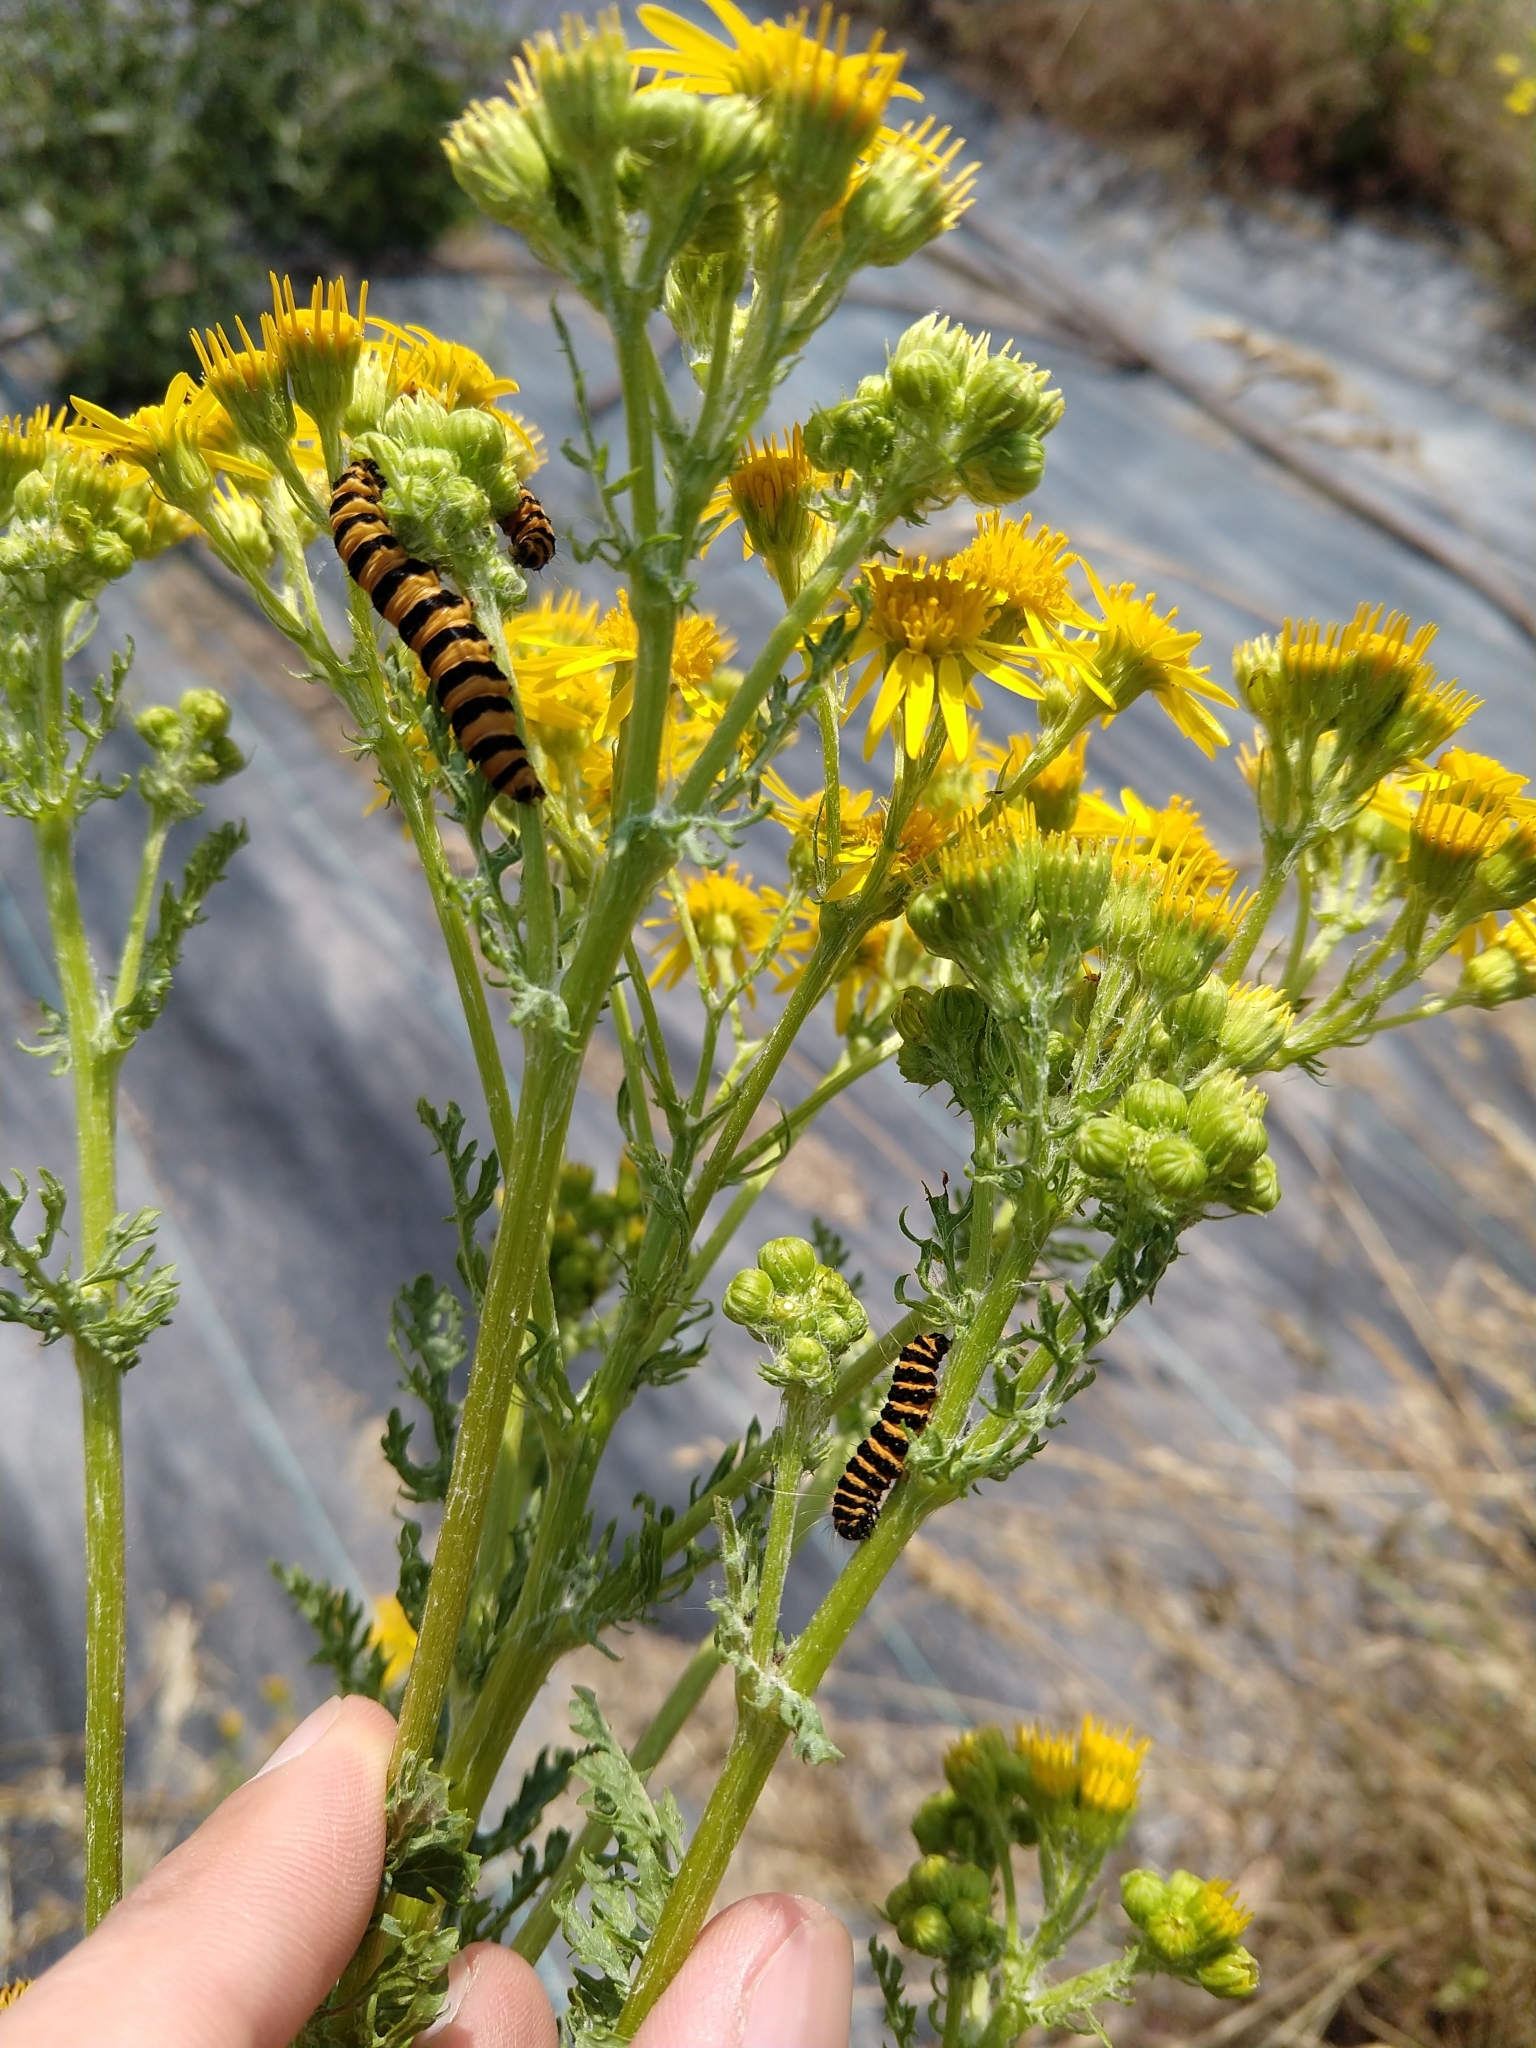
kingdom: Animalia
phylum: Arthropoda
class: Insecta
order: Lepidoptera
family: Erebidae
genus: Tyria
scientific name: Tyria jacobaeae
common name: Cinnabar
